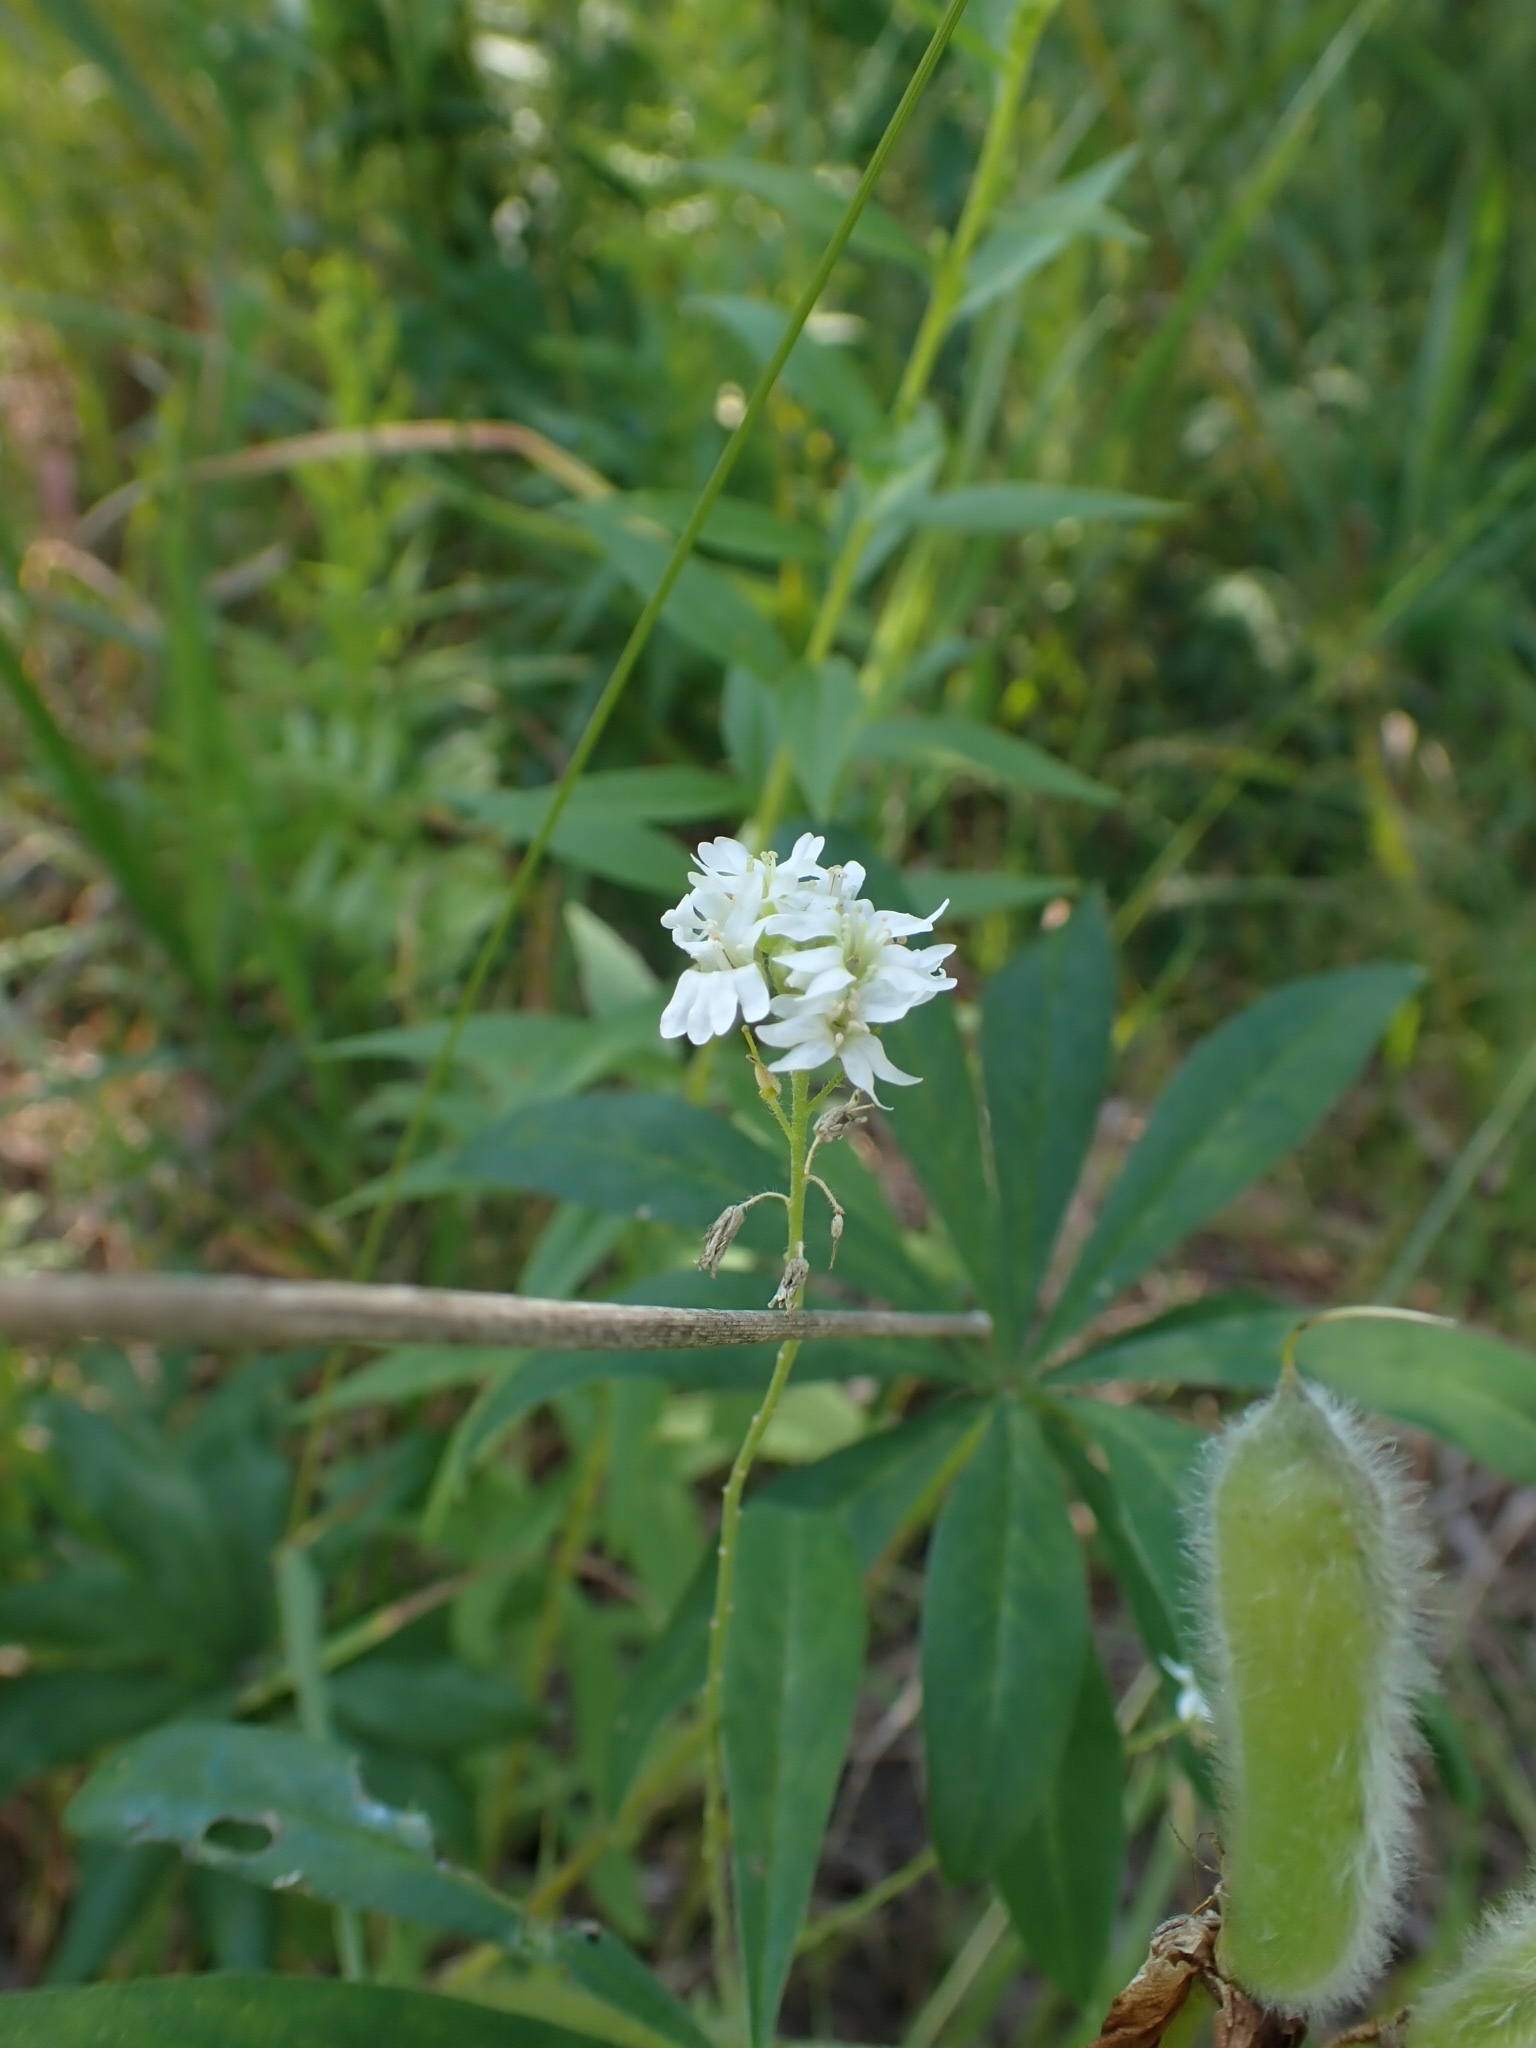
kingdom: Plantae
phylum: Tracheophyta
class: Magnoliopsida
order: Brassicales
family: Brassicaceae
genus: Berteroa
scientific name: Berteroa incana
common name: Hoary alison
